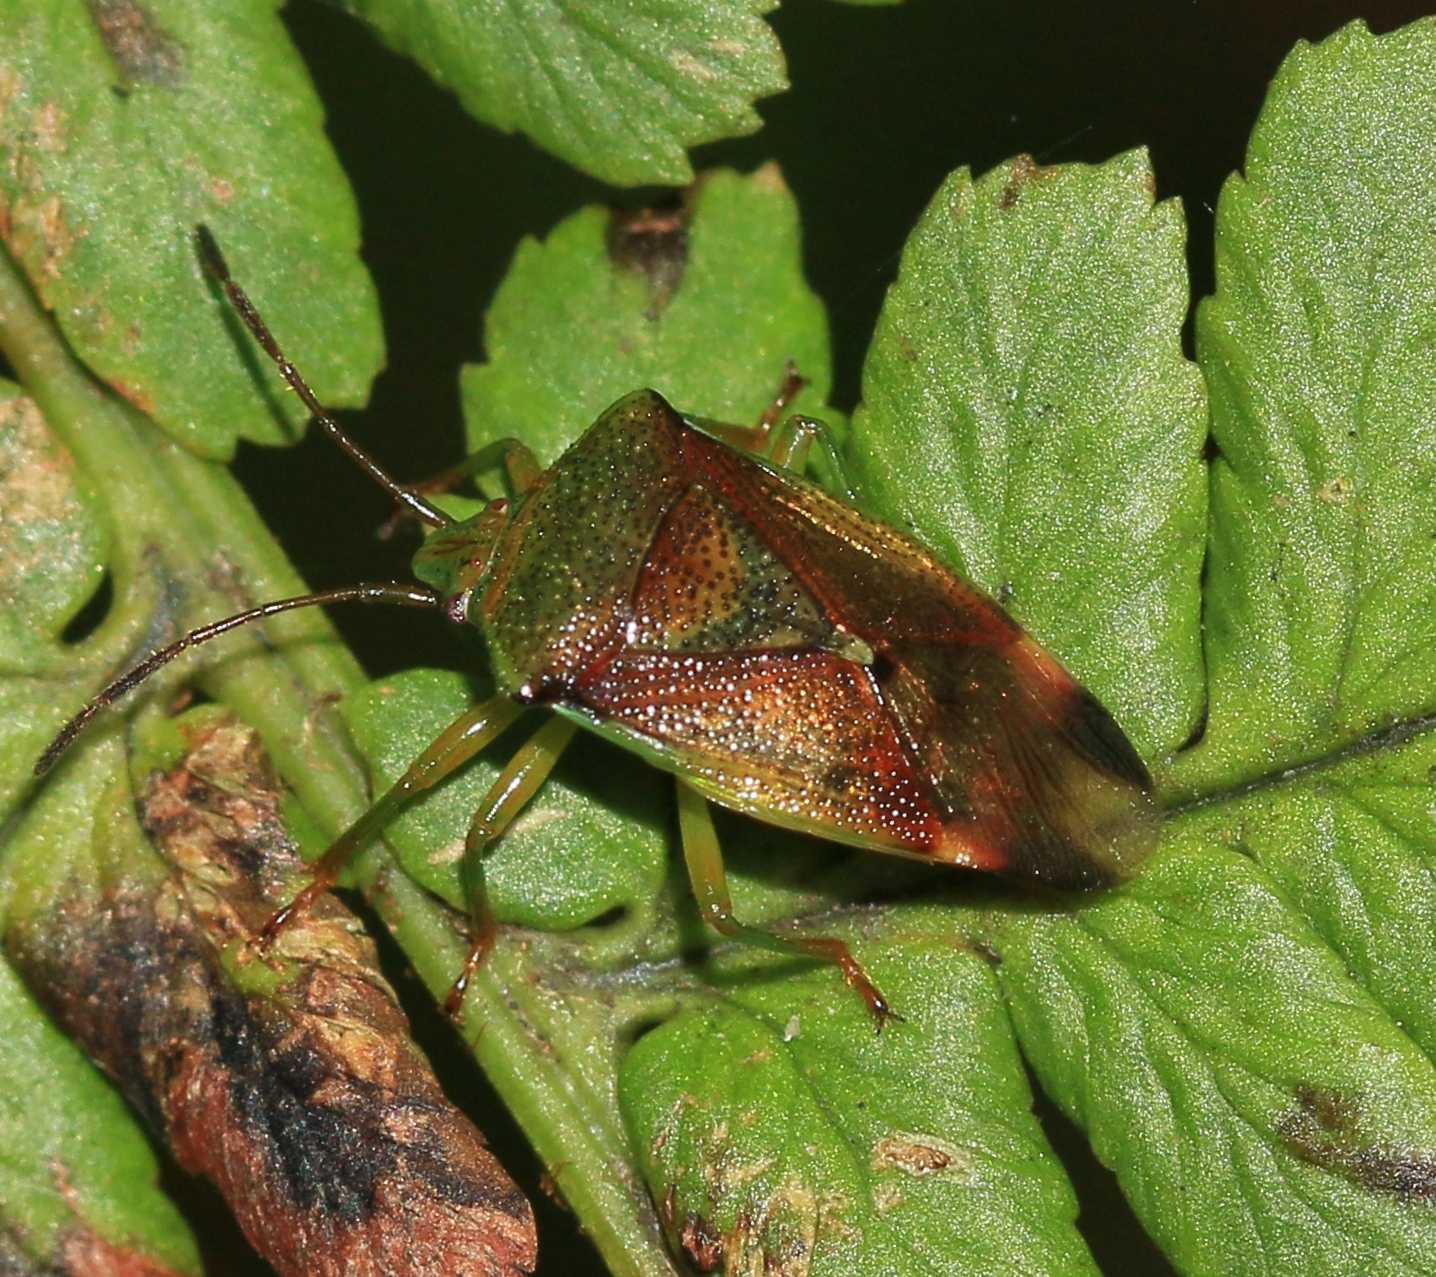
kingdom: Animalia
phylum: Arthropoda
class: Insecta
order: Hemiptera
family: Acanthosomatidae
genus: Elasmostethus
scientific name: Elasmostethus interstinctus
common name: Birch shieldbug
